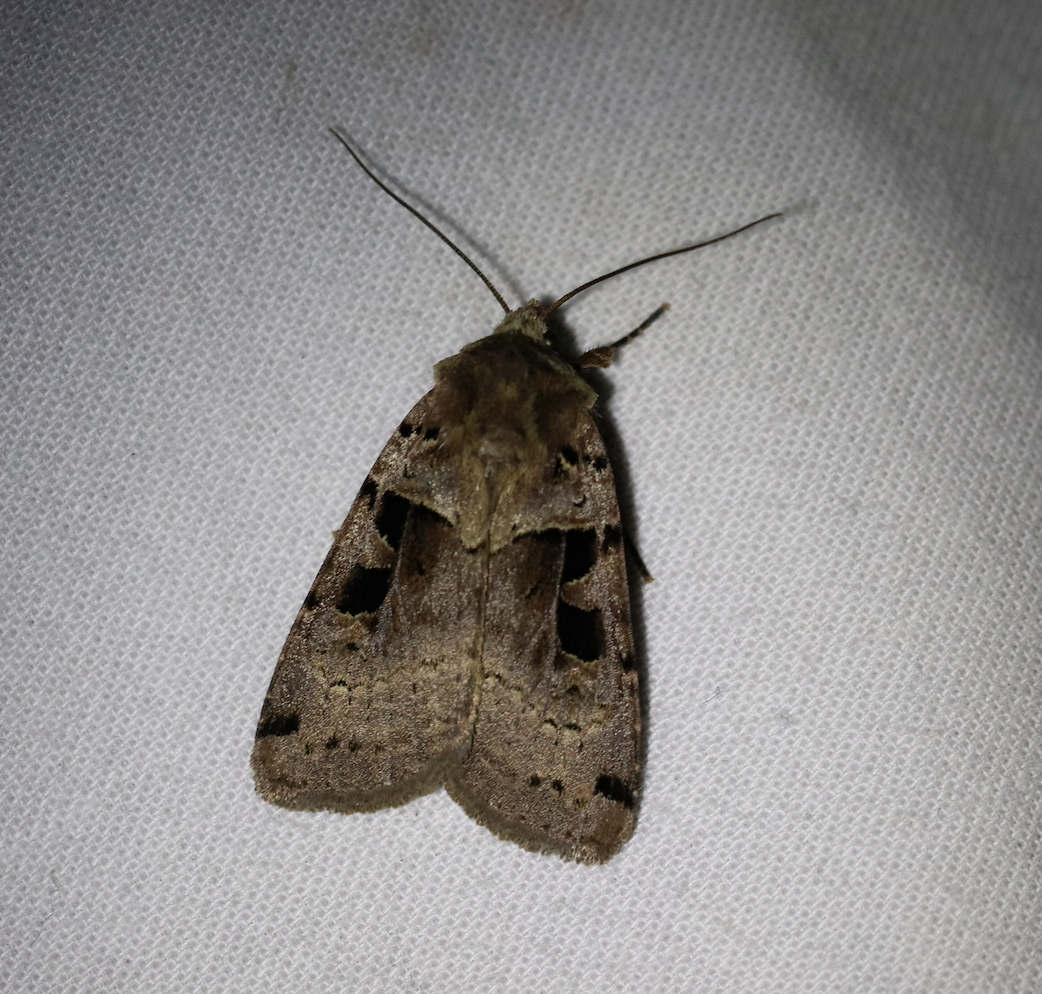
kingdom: Animalia
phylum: Arthropoda
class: Insecta
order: Lepidoptera
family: Noctuidae
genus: Xestia
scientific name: Xestia triangulum
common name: Double square-spot
